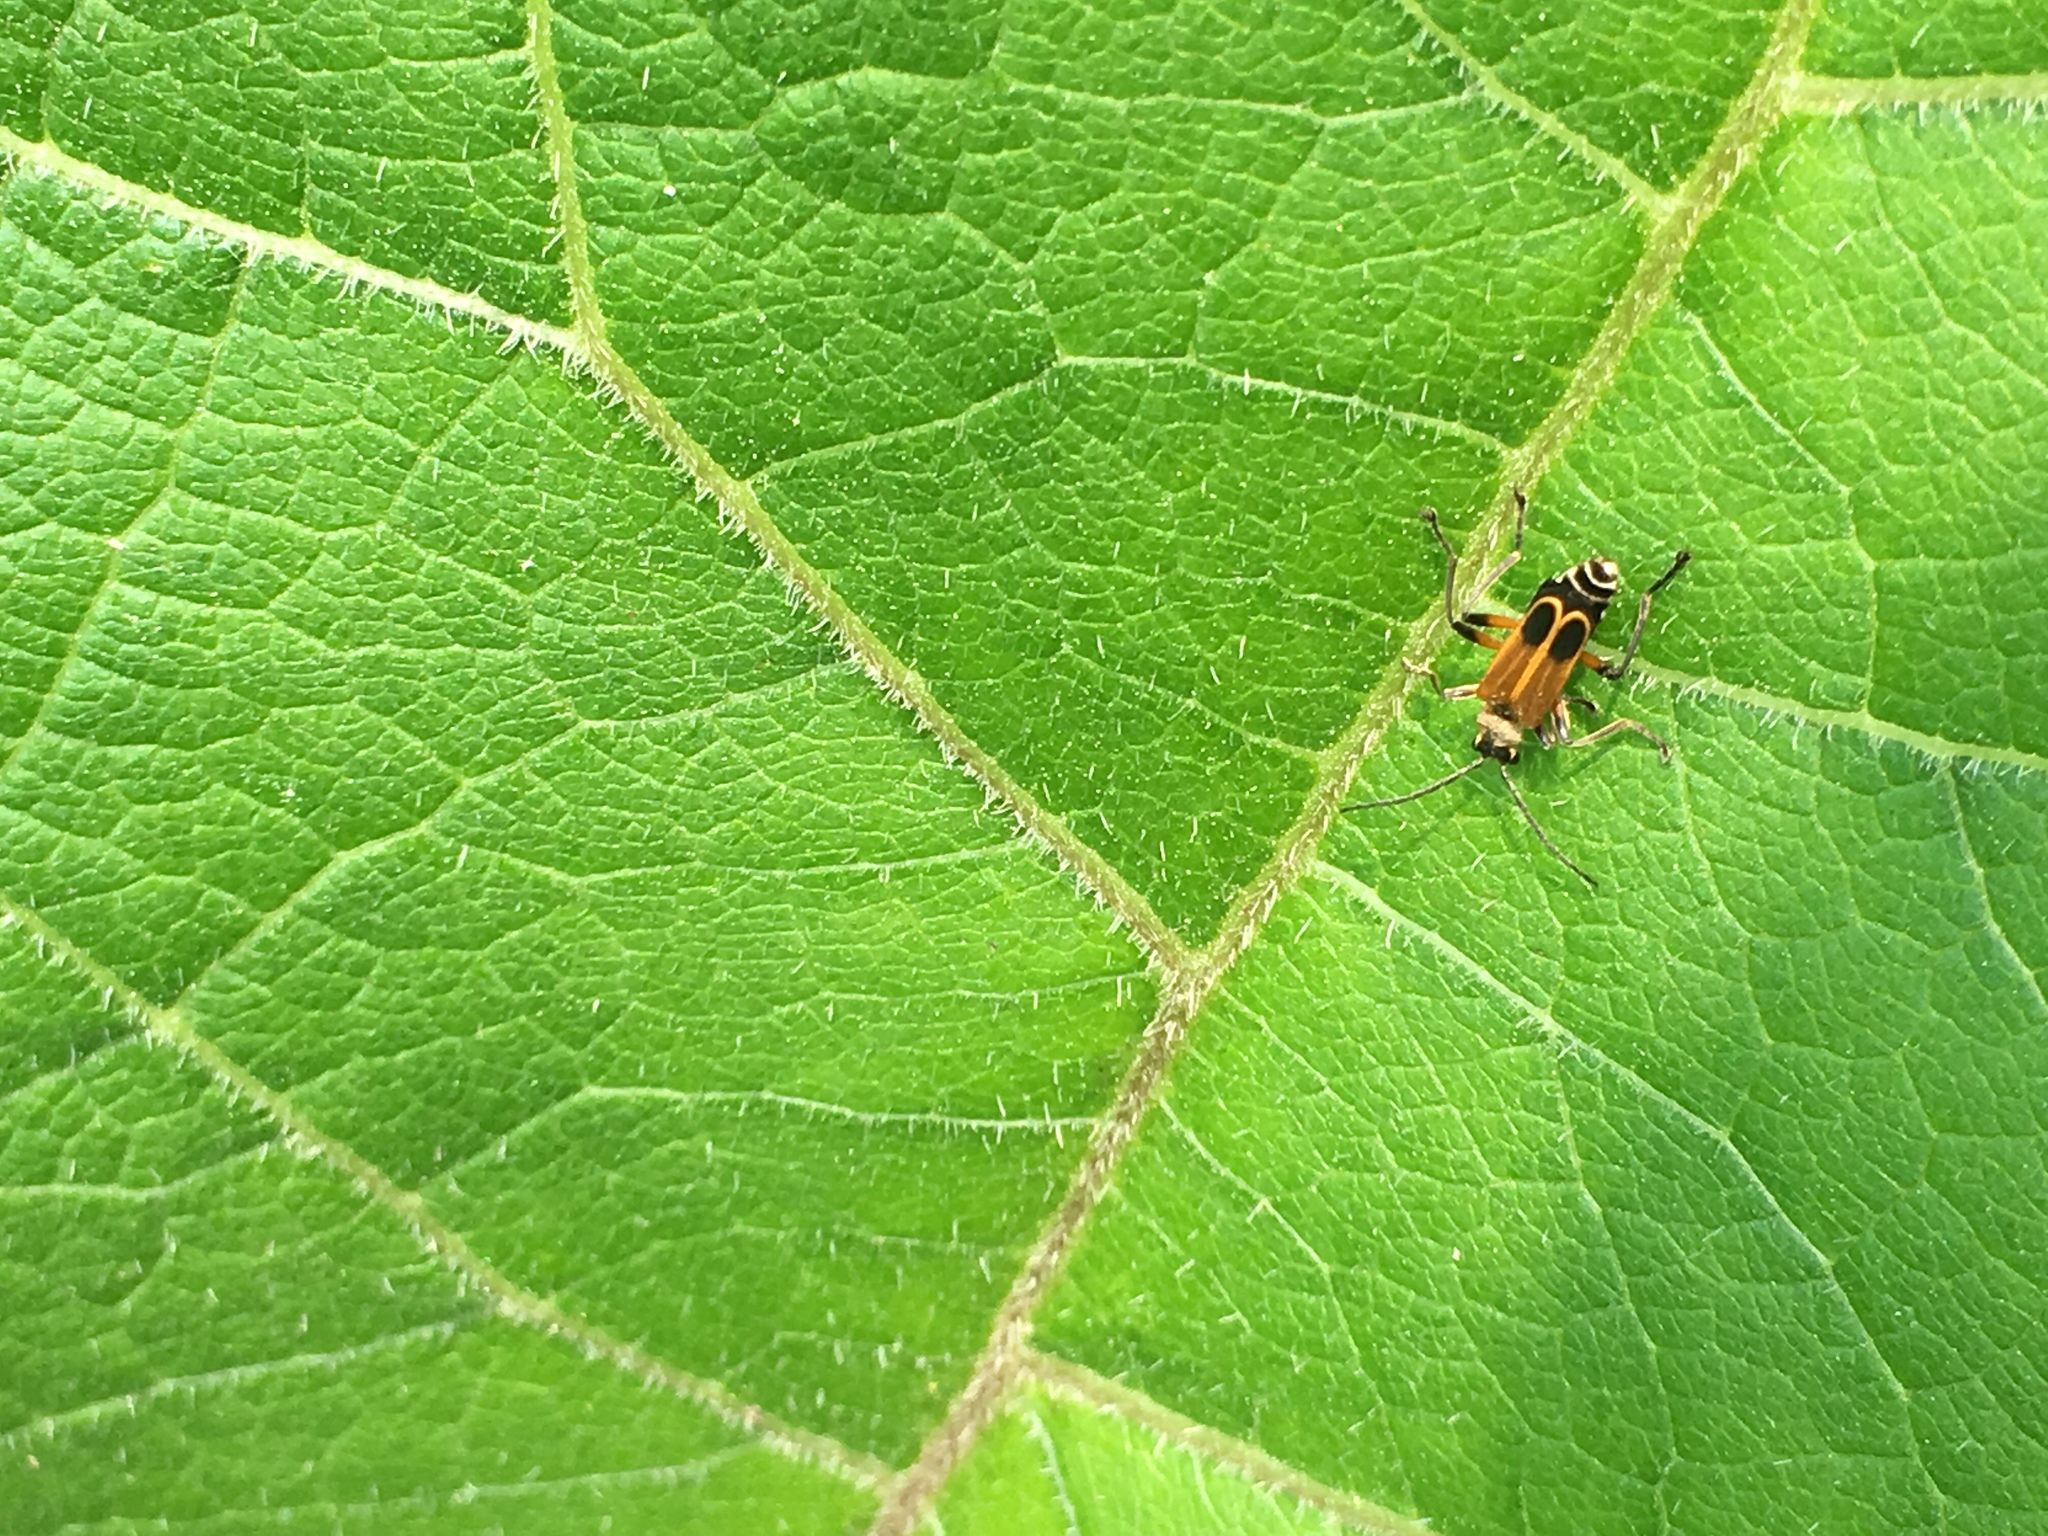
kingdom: Animalia
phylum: Arthropoda
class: Insecta
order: Coleoptera
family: Cantharidae
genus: Chauliognathus
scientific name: Chauliognathus marginatus
